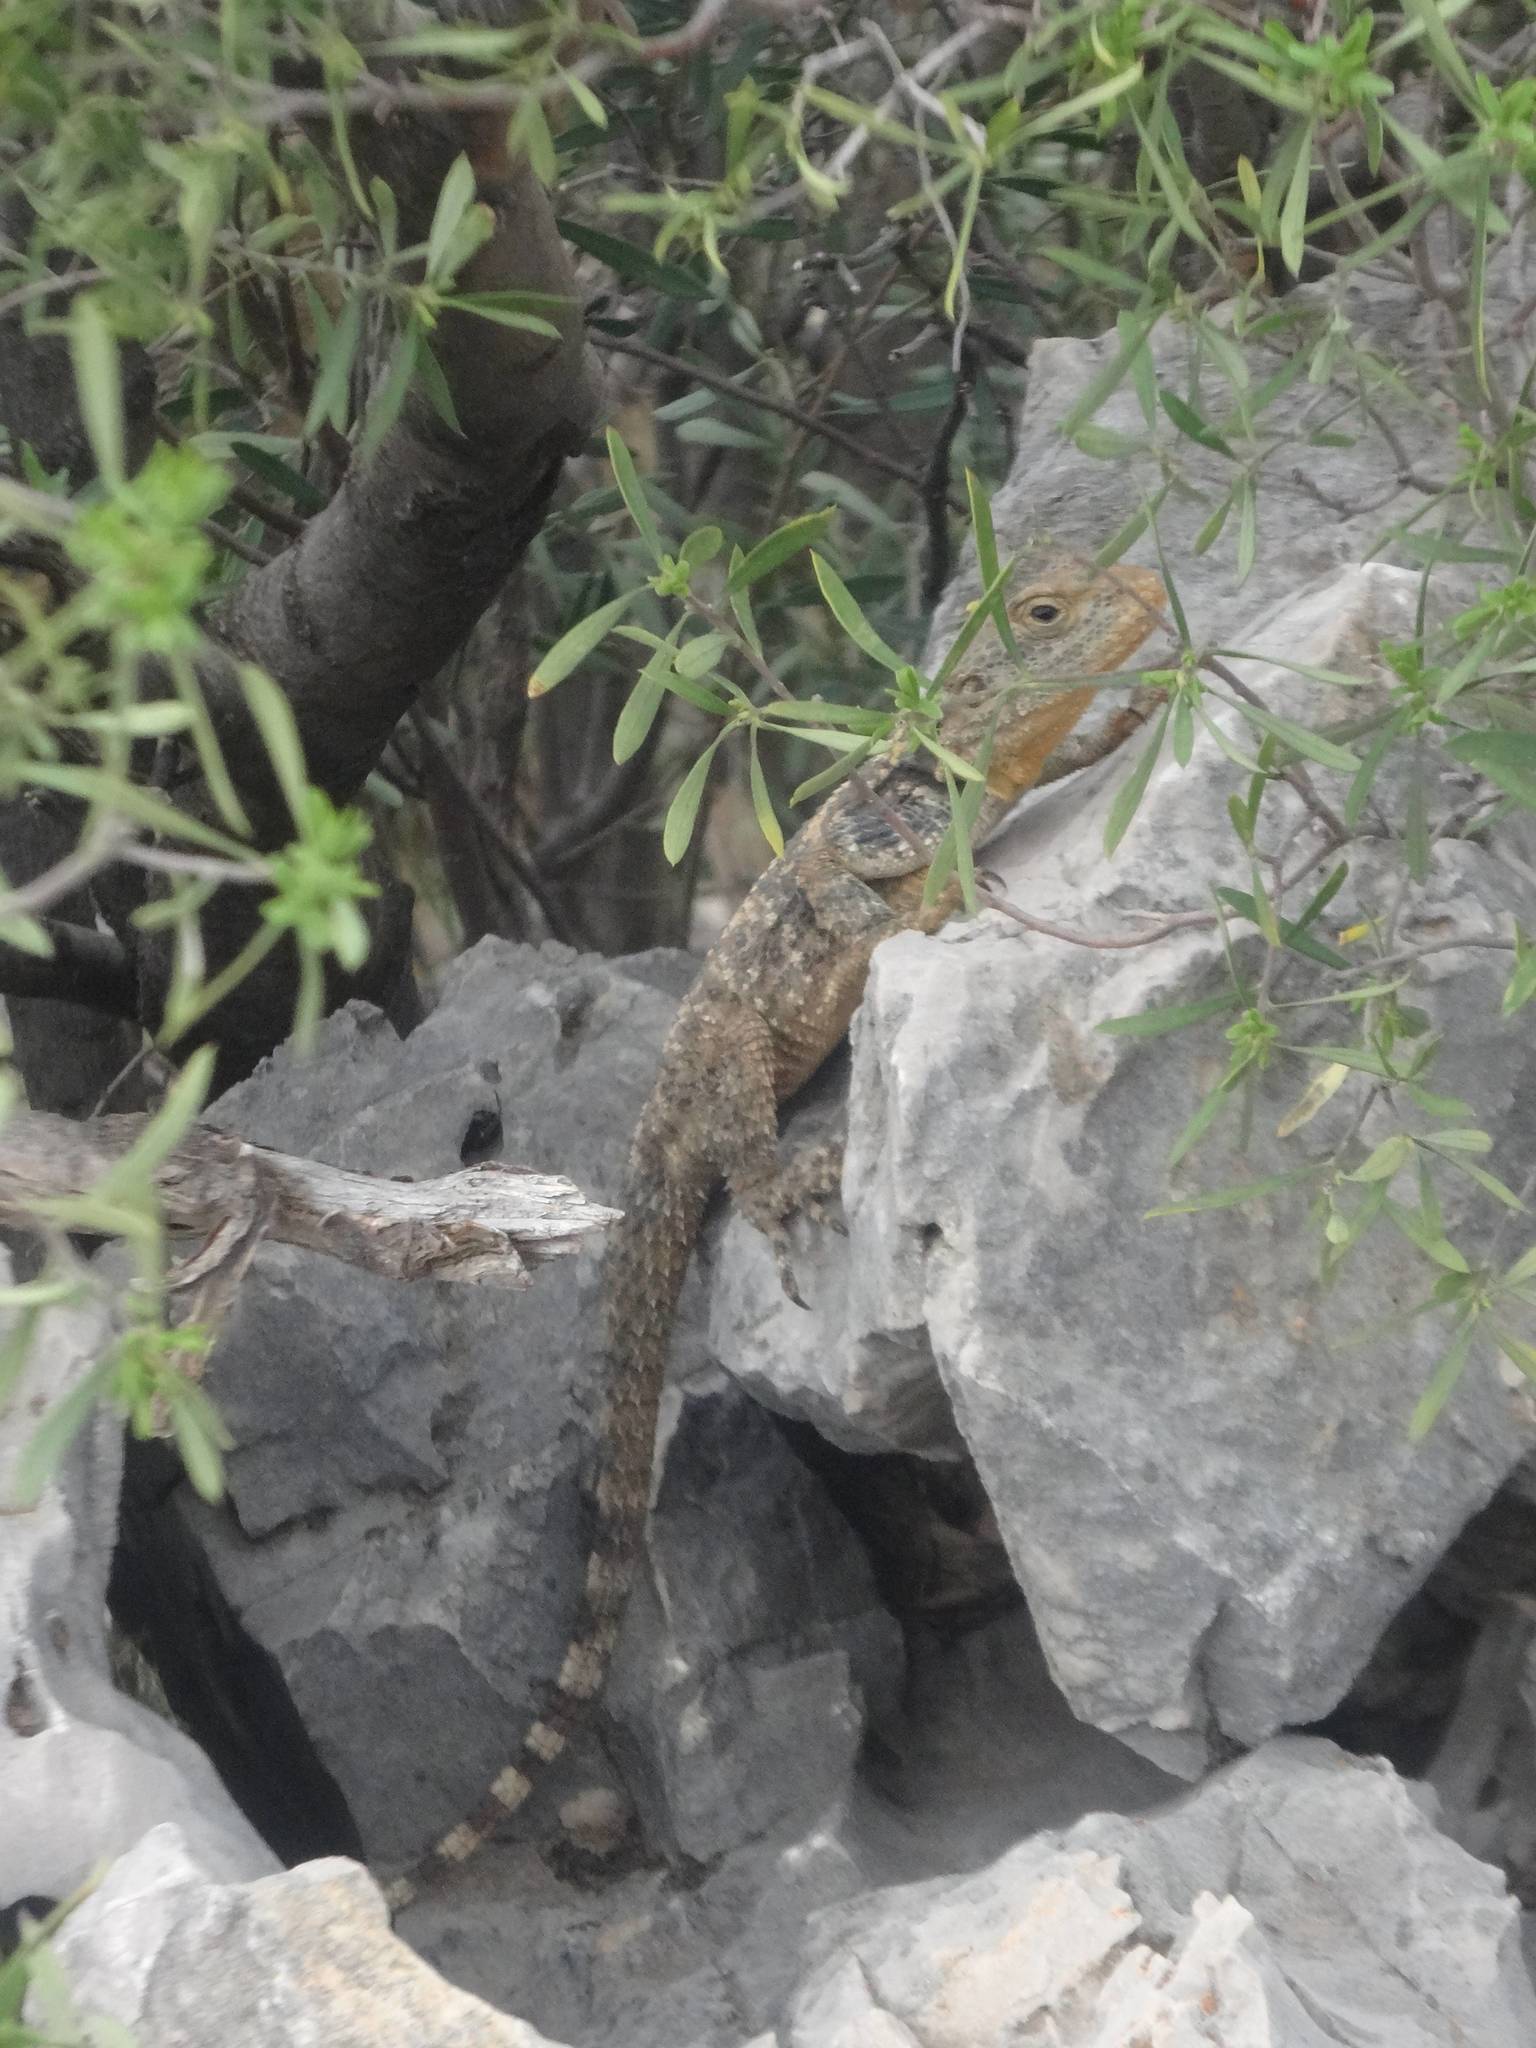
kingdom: Animalia
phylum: Chordata
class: Squamata
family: Agamidae
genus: Stellagama
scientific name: Stellagama stellio
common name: Starred agama
